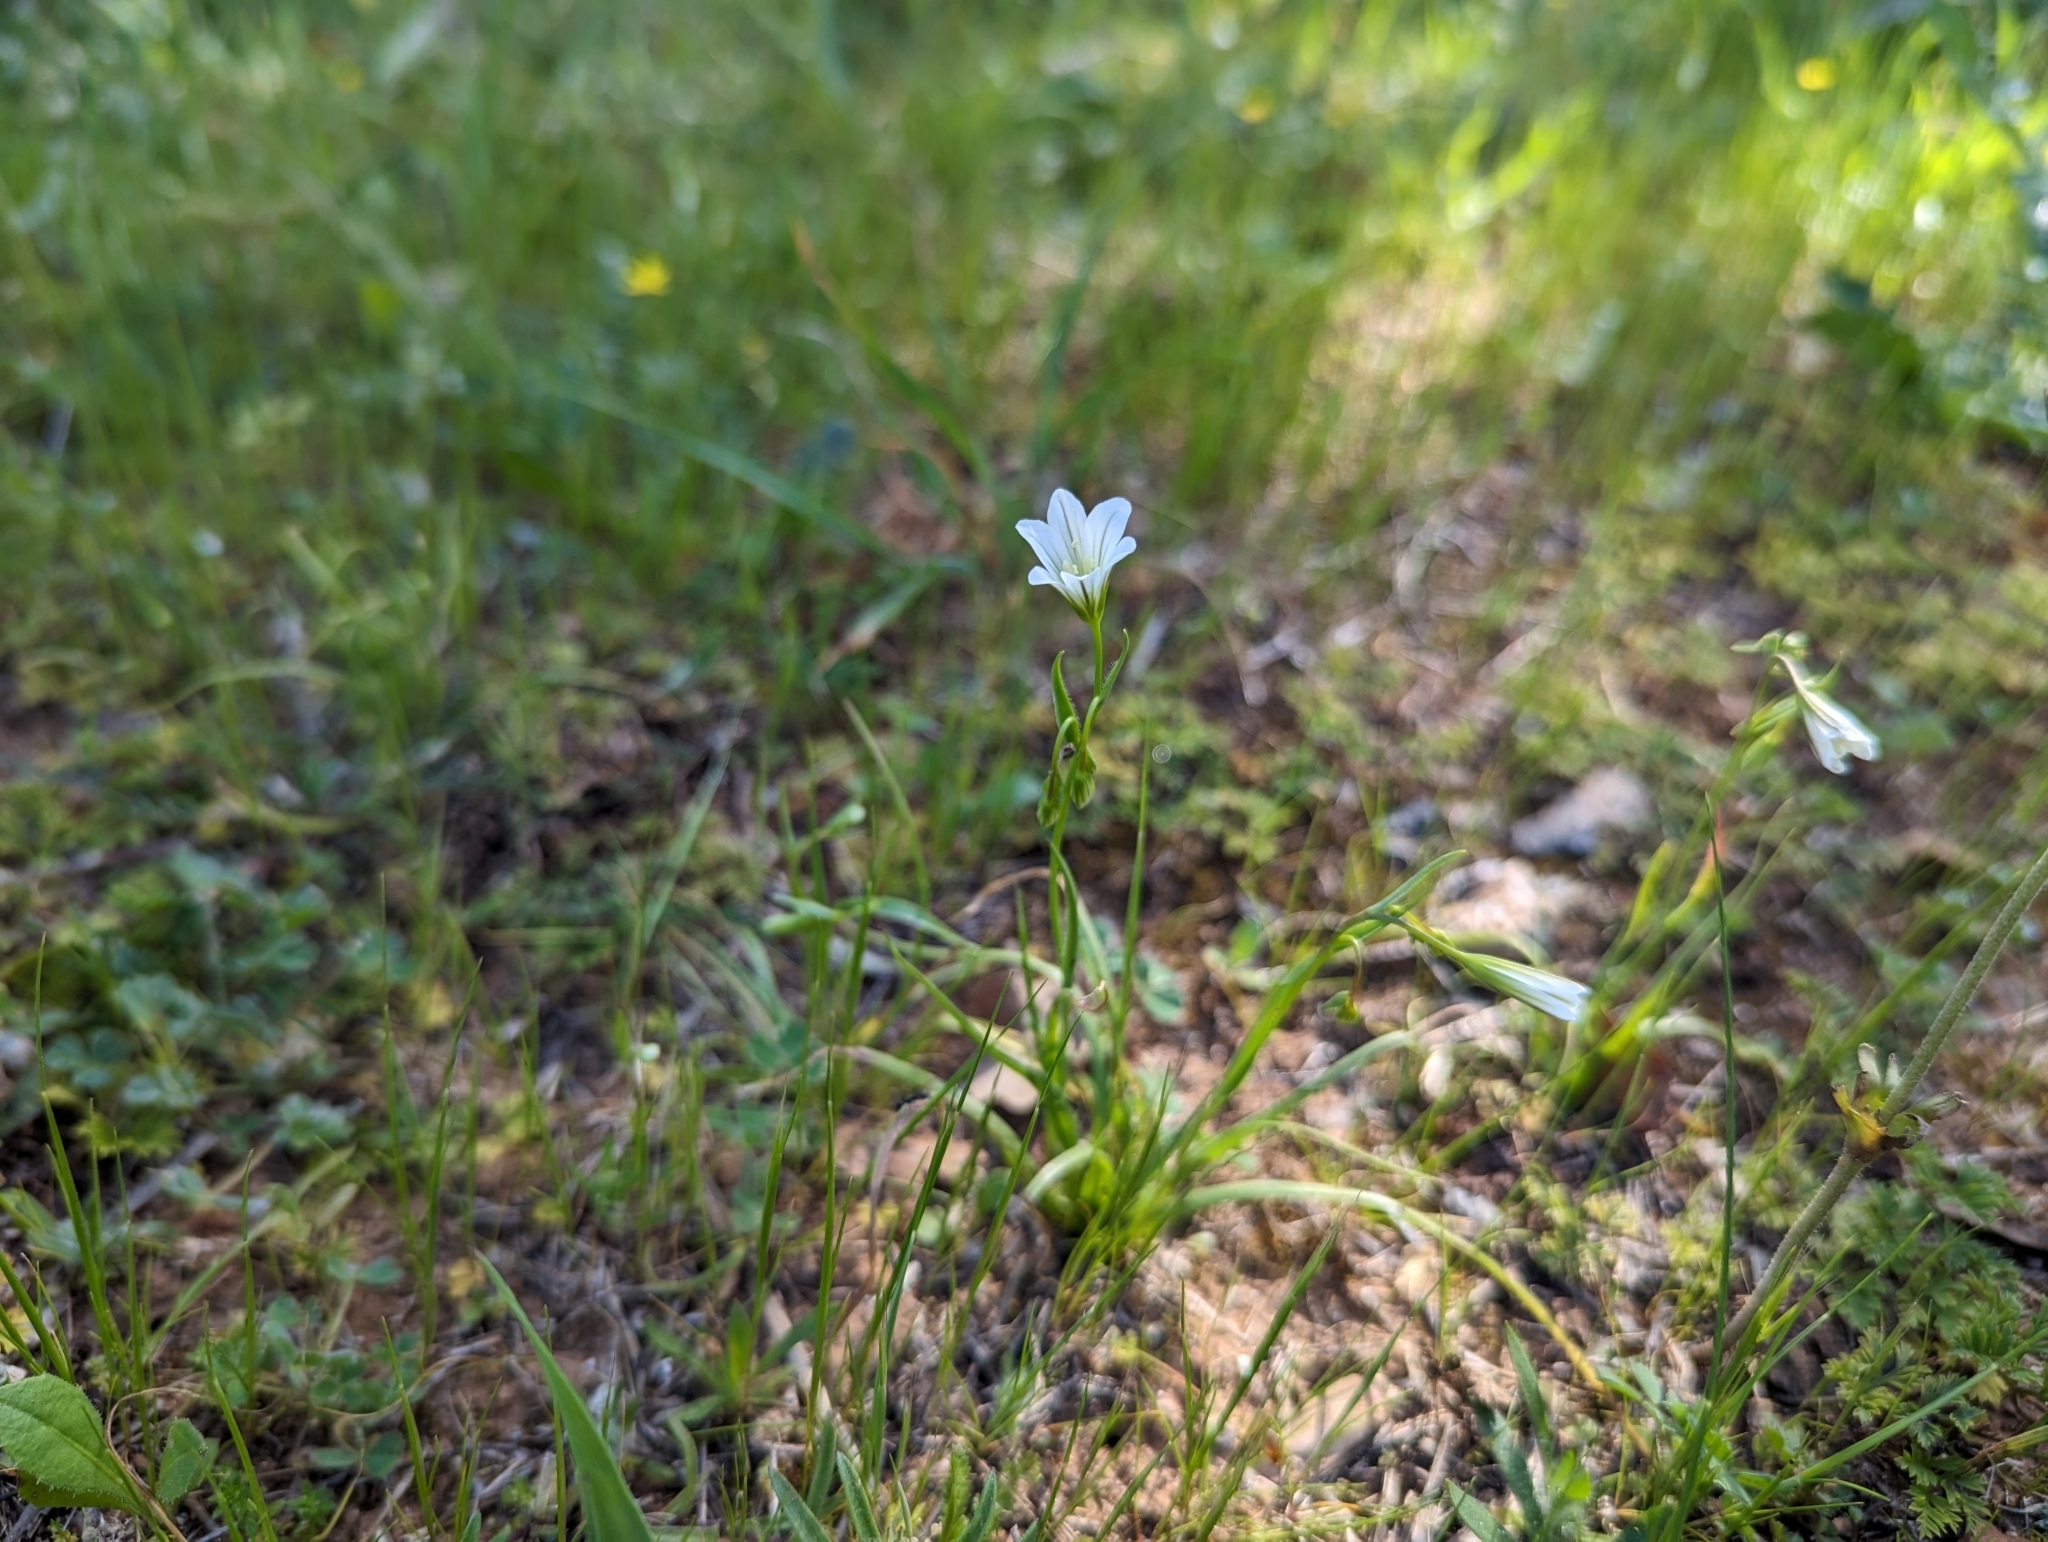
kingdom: Plantae
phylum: Tracheophyta
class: Liliopsida
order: Liliales
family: Liliaceae
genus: Gagea
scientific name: Gagea graeca
